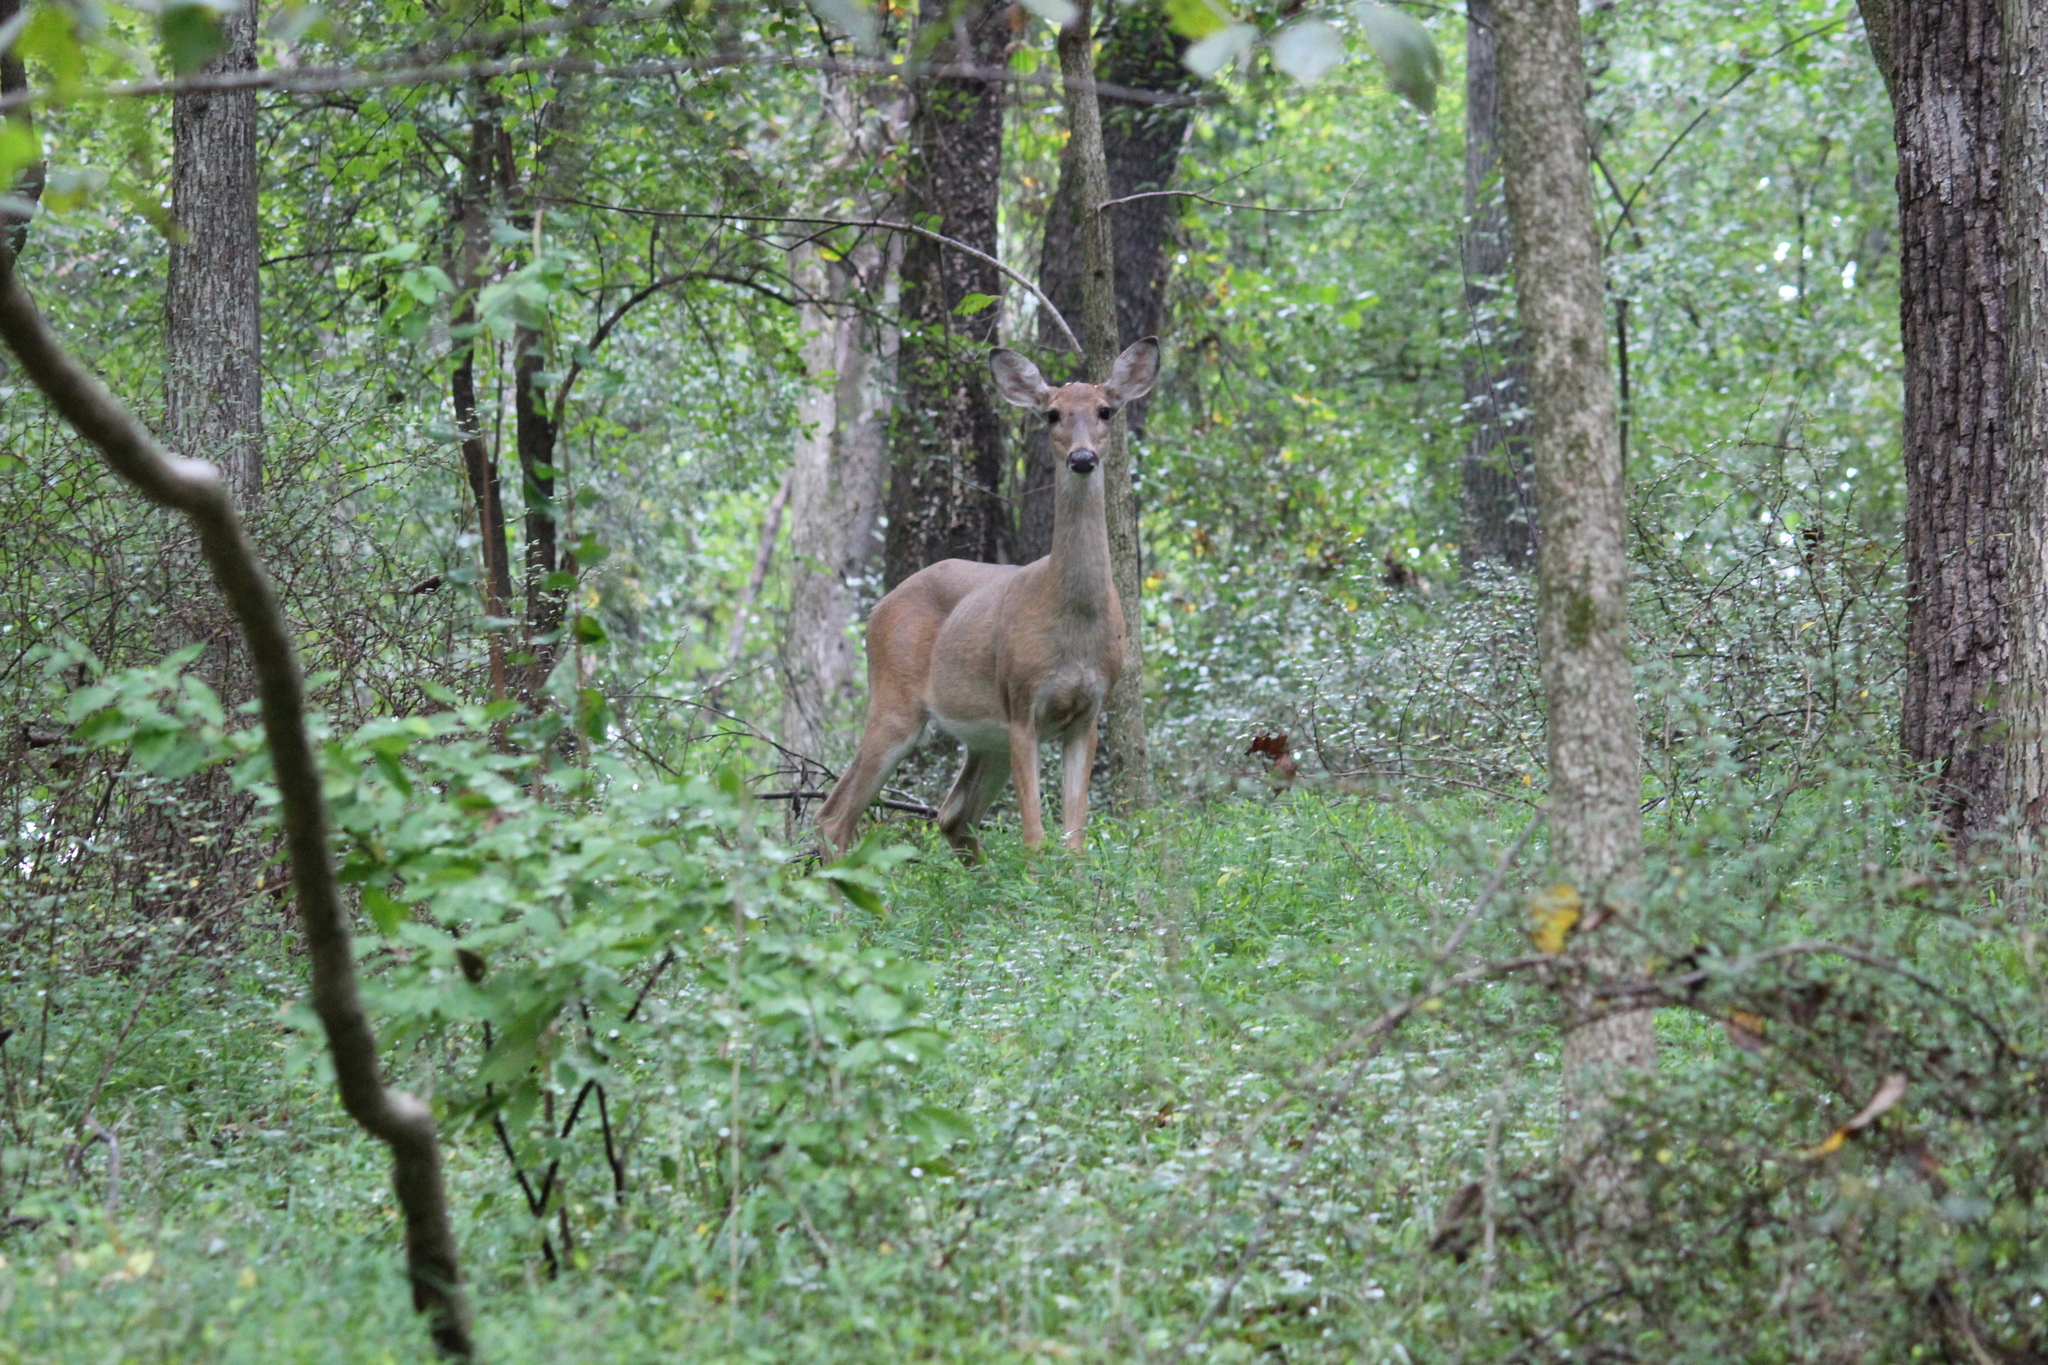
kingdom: Animalia
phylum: Chordata
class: Mammalia
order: Artiodactyla
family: Cervidae
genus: Odocoileus
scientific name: Odocoileus virginianus
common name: White-tailed deer
